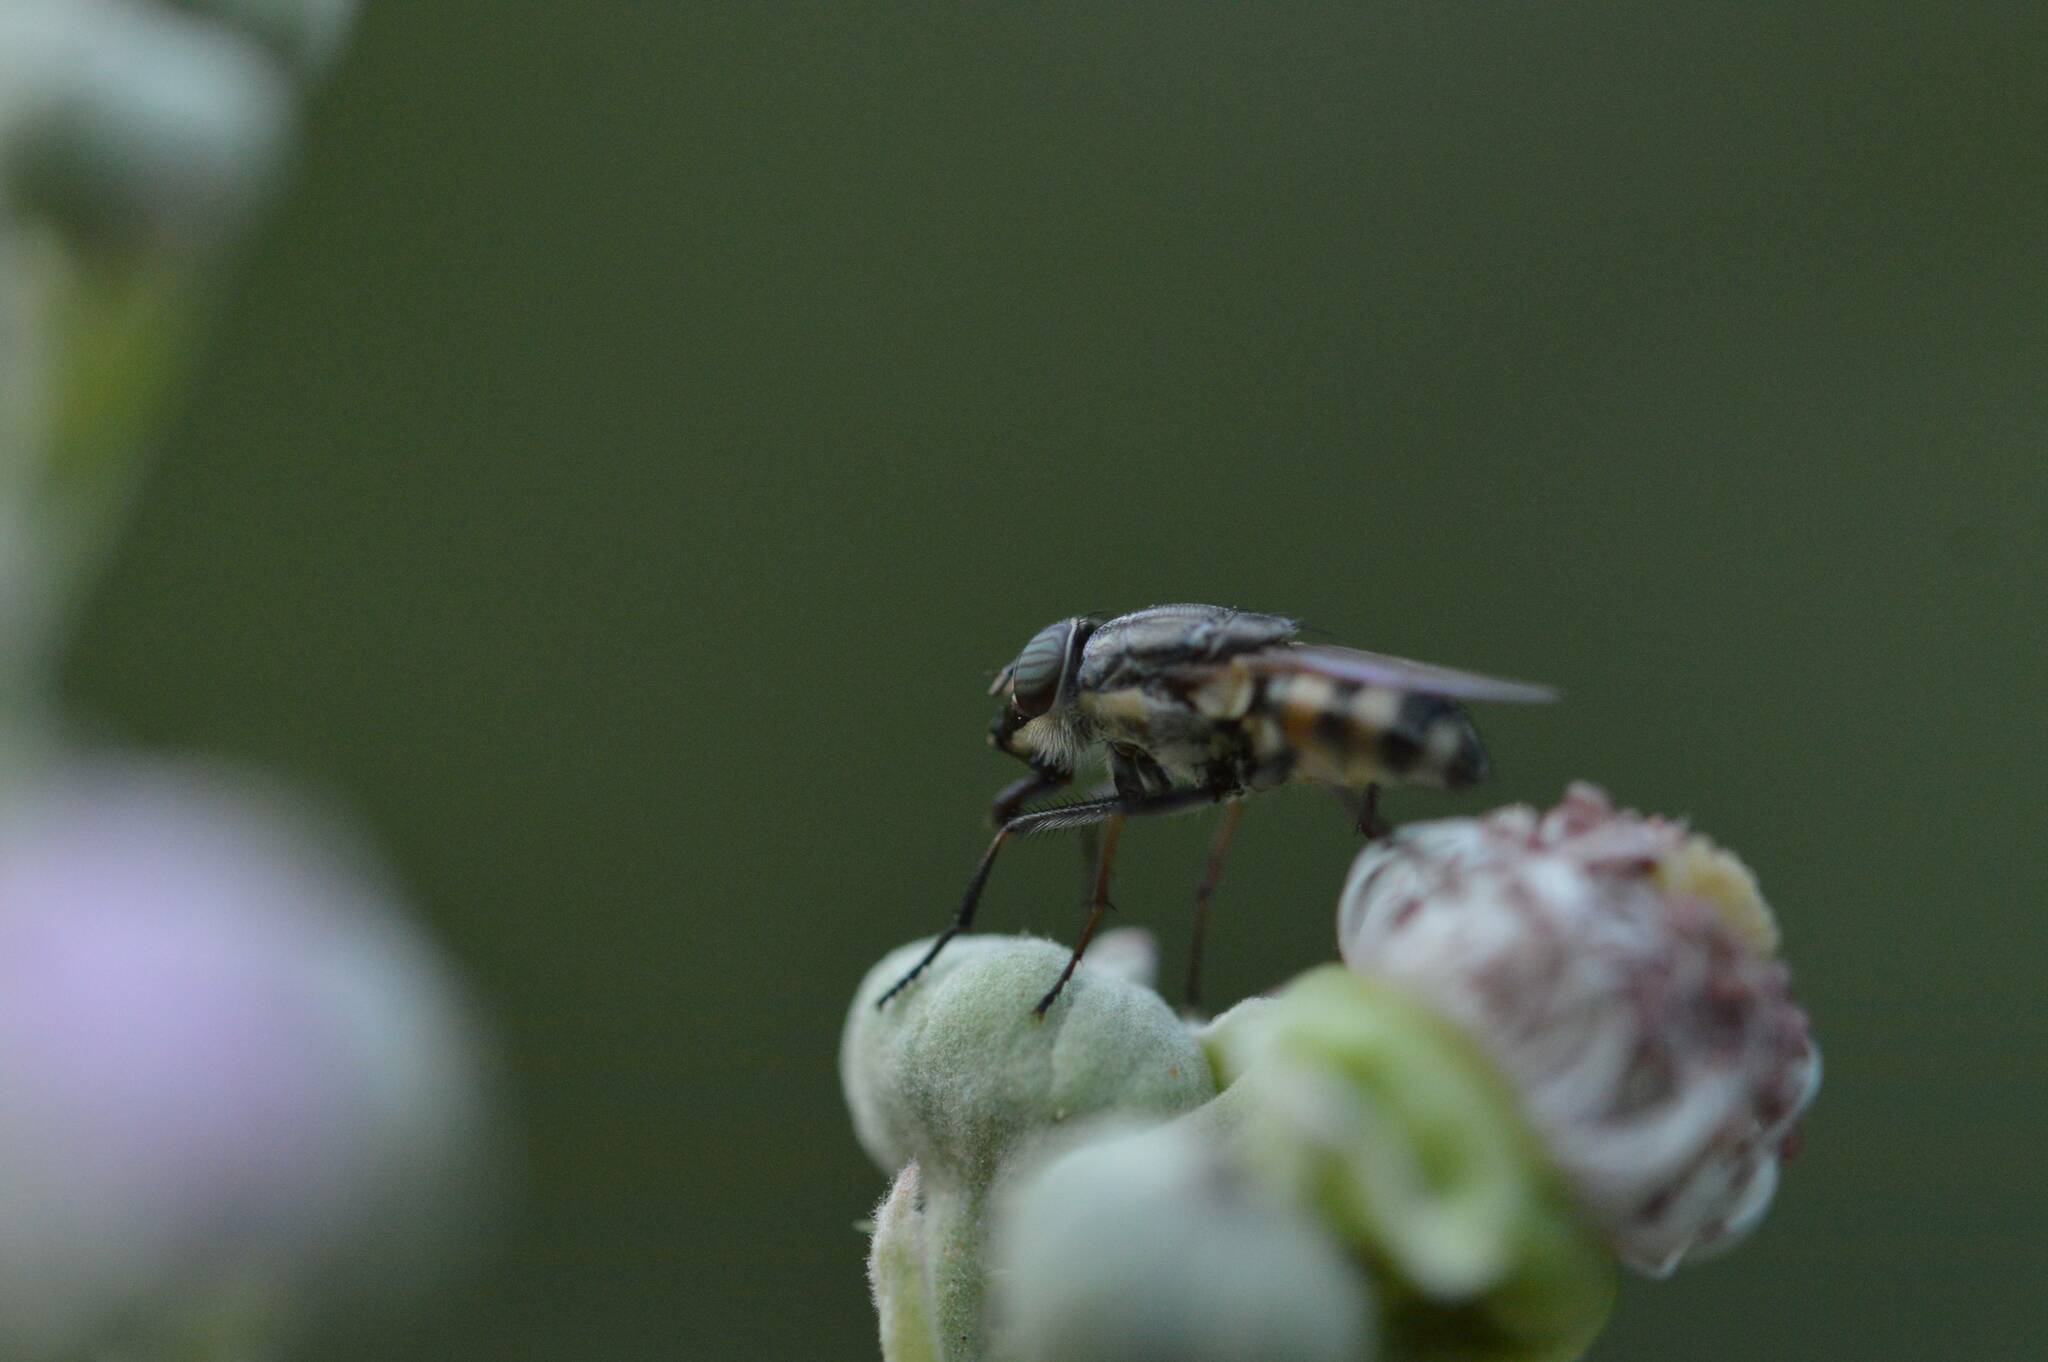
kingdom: Animalia
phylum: Arthropoda
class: Insecta
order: Diptera
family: Calliphoridae
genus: Stomorhina
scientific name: Stomorhina lunata
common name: Locust blowfly
